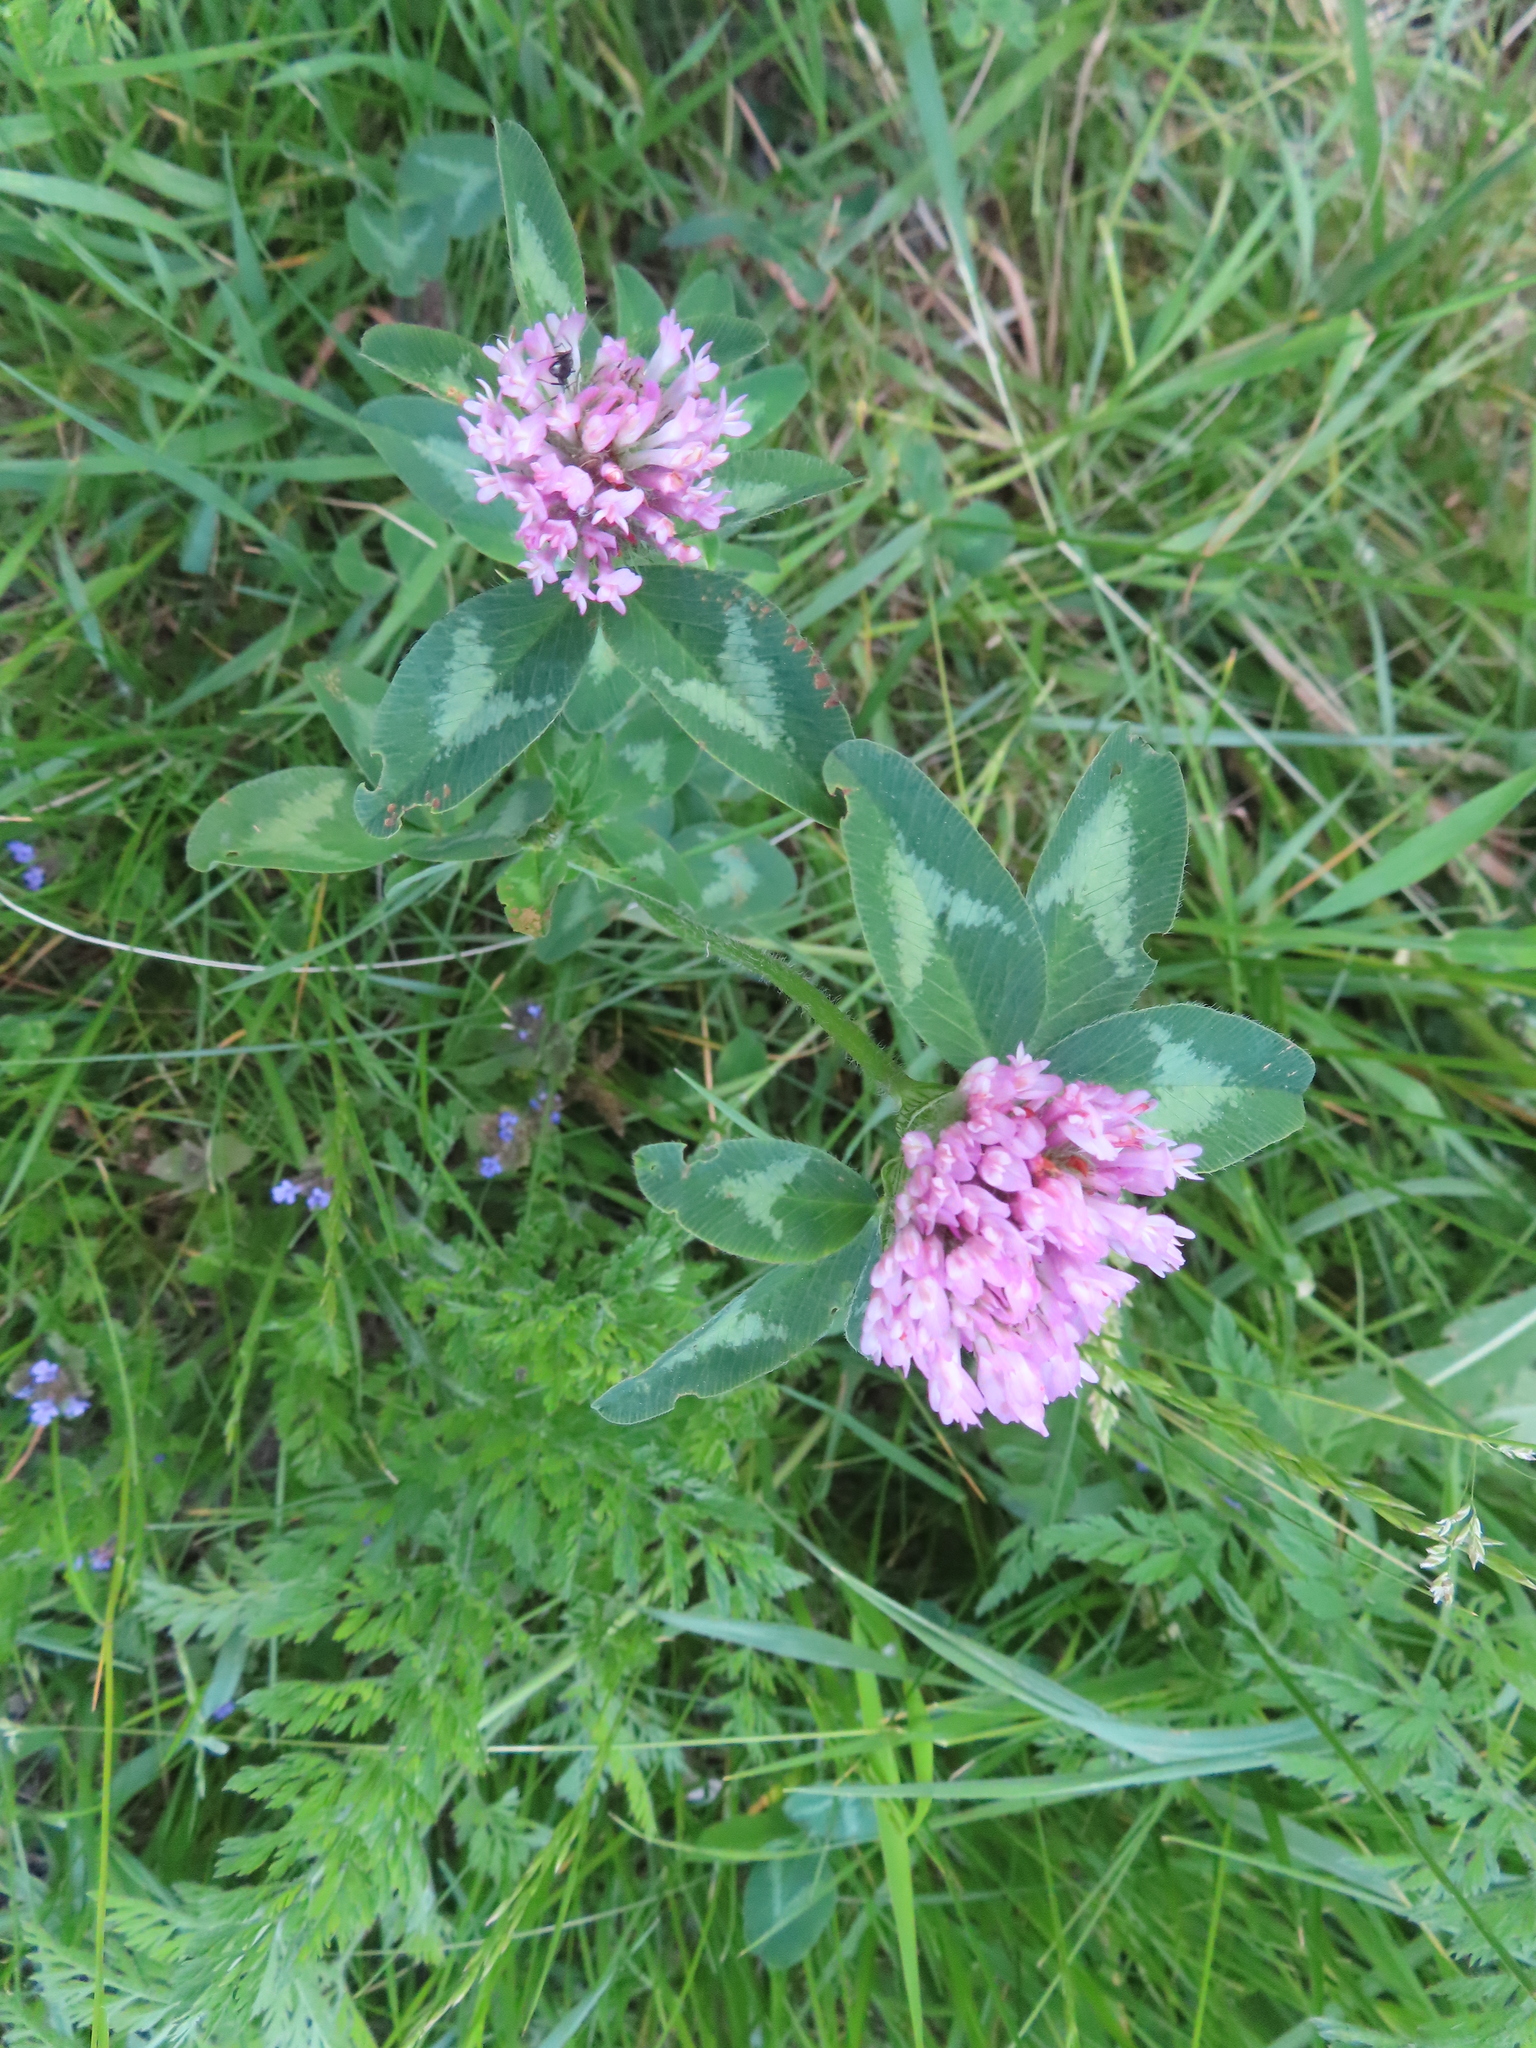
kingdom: Plantae
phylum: Tracheophyta
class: Magnoliopsida
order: Fabales
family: Fabaceae
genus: Trifolium
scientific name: Trifolium pratense
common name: Red clover
